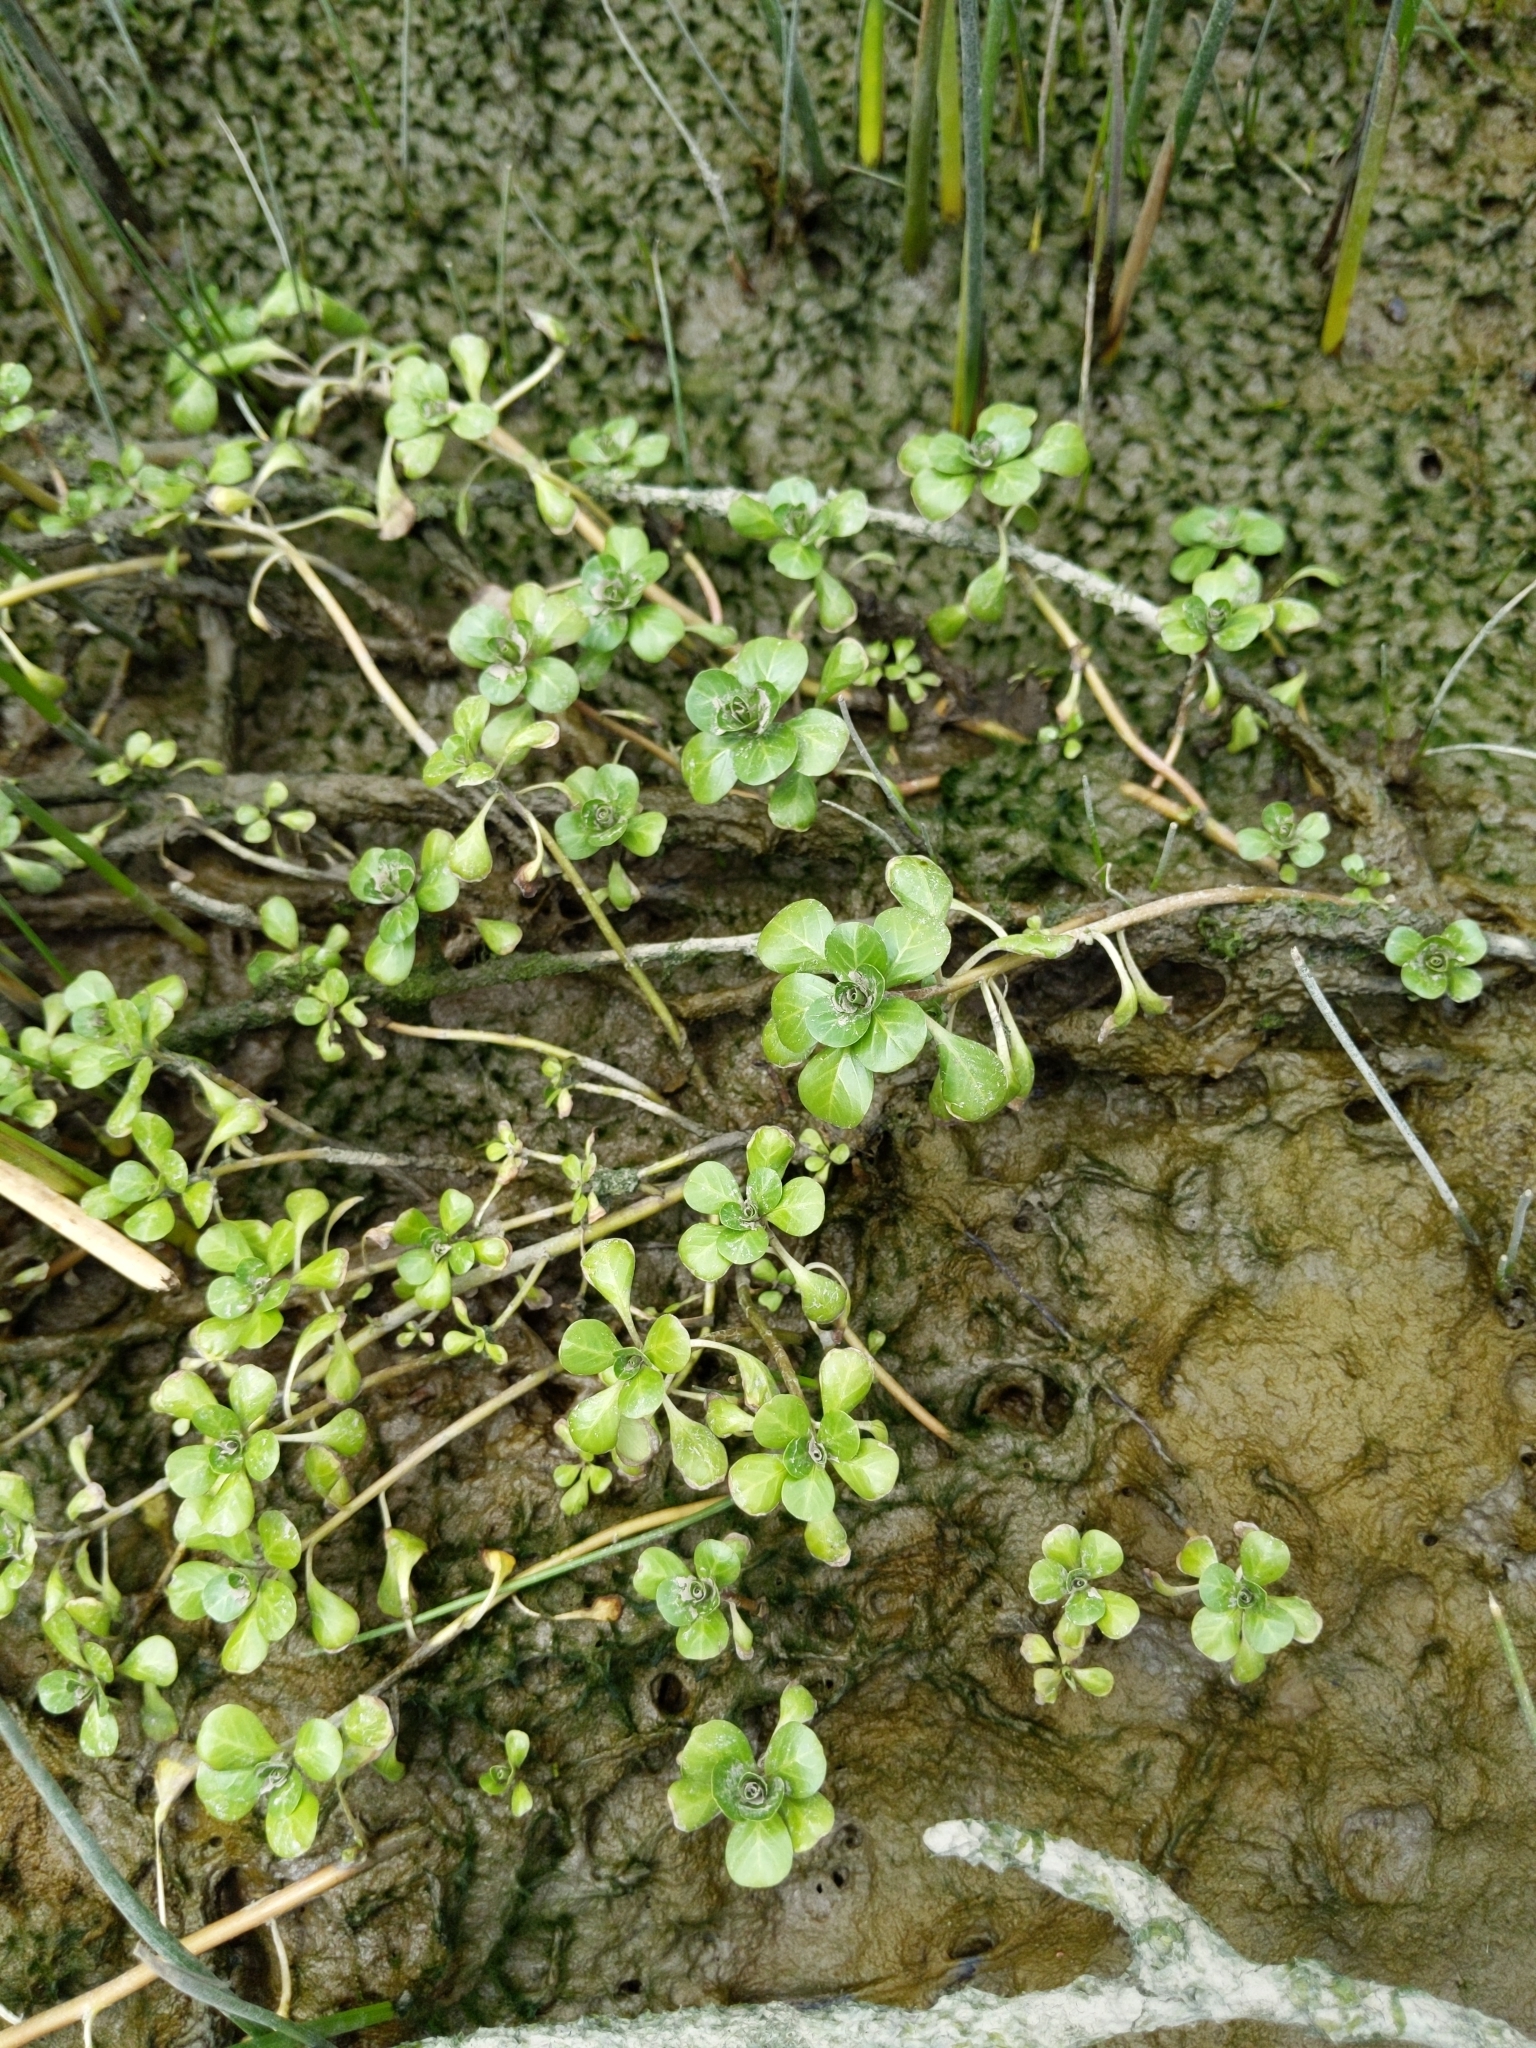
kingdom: Plantae
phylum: Tracheophyta
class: Magnoliopsida
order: Myrtales
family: Onagraceae
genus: Ludwigia
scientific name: Ludwigia peploides
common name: Floating primrose-willow
